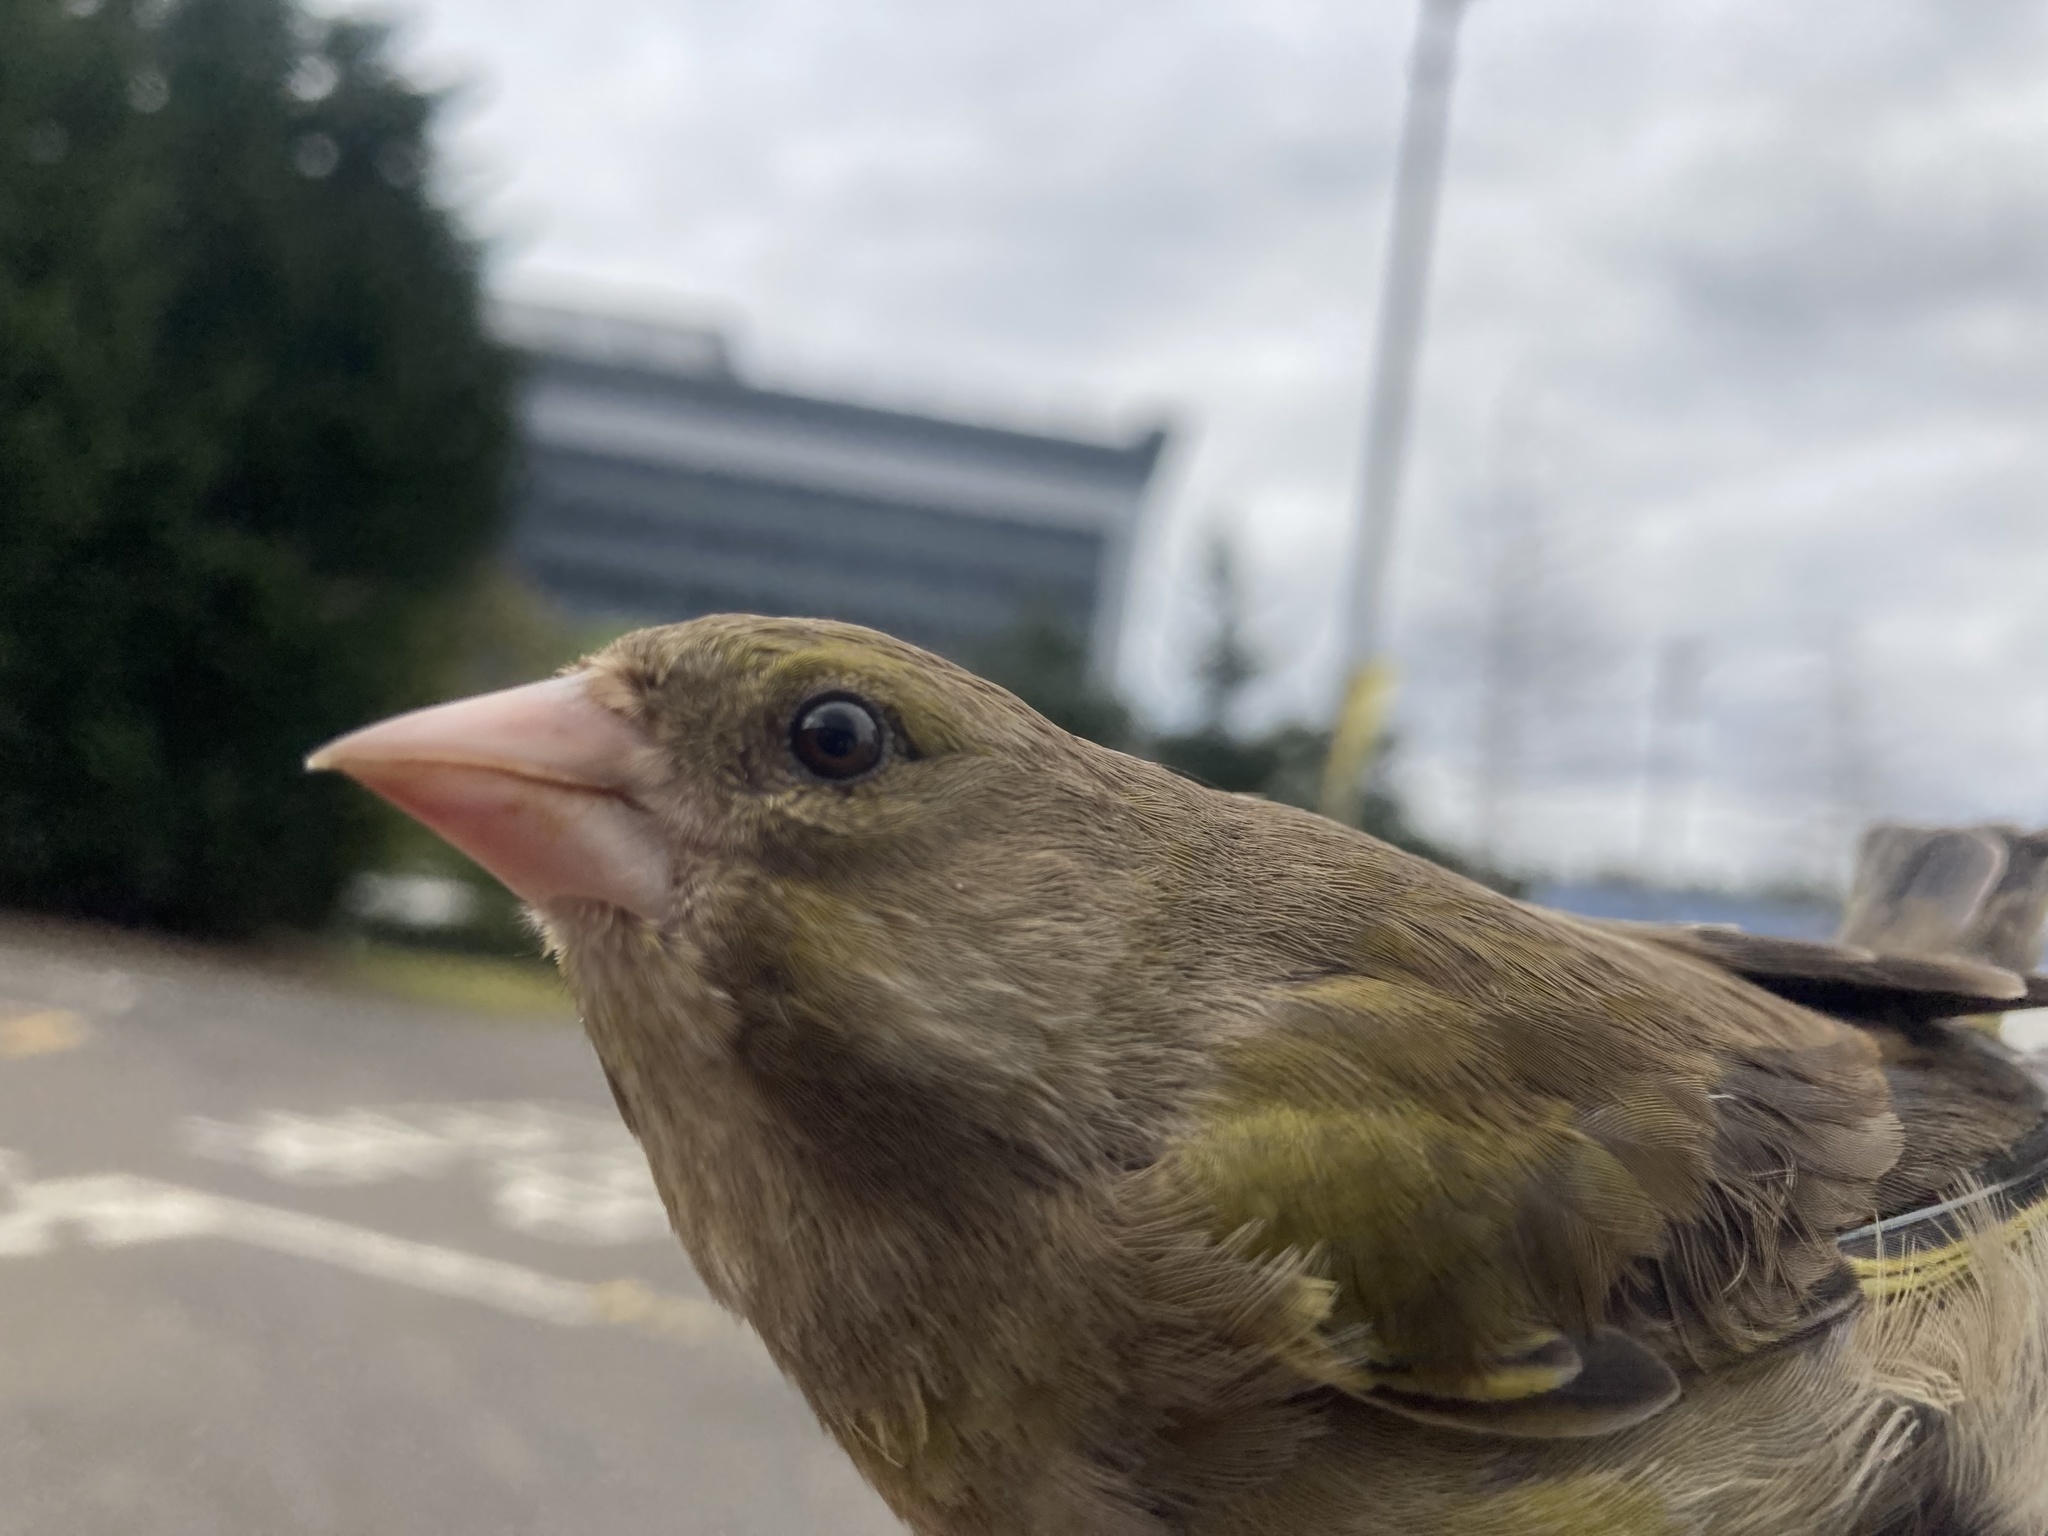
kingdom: Plantae
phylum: Tracheophyta
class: Liliopsida
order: Poales
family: Poaceae
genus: Chloris
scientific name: Chloris chloris
